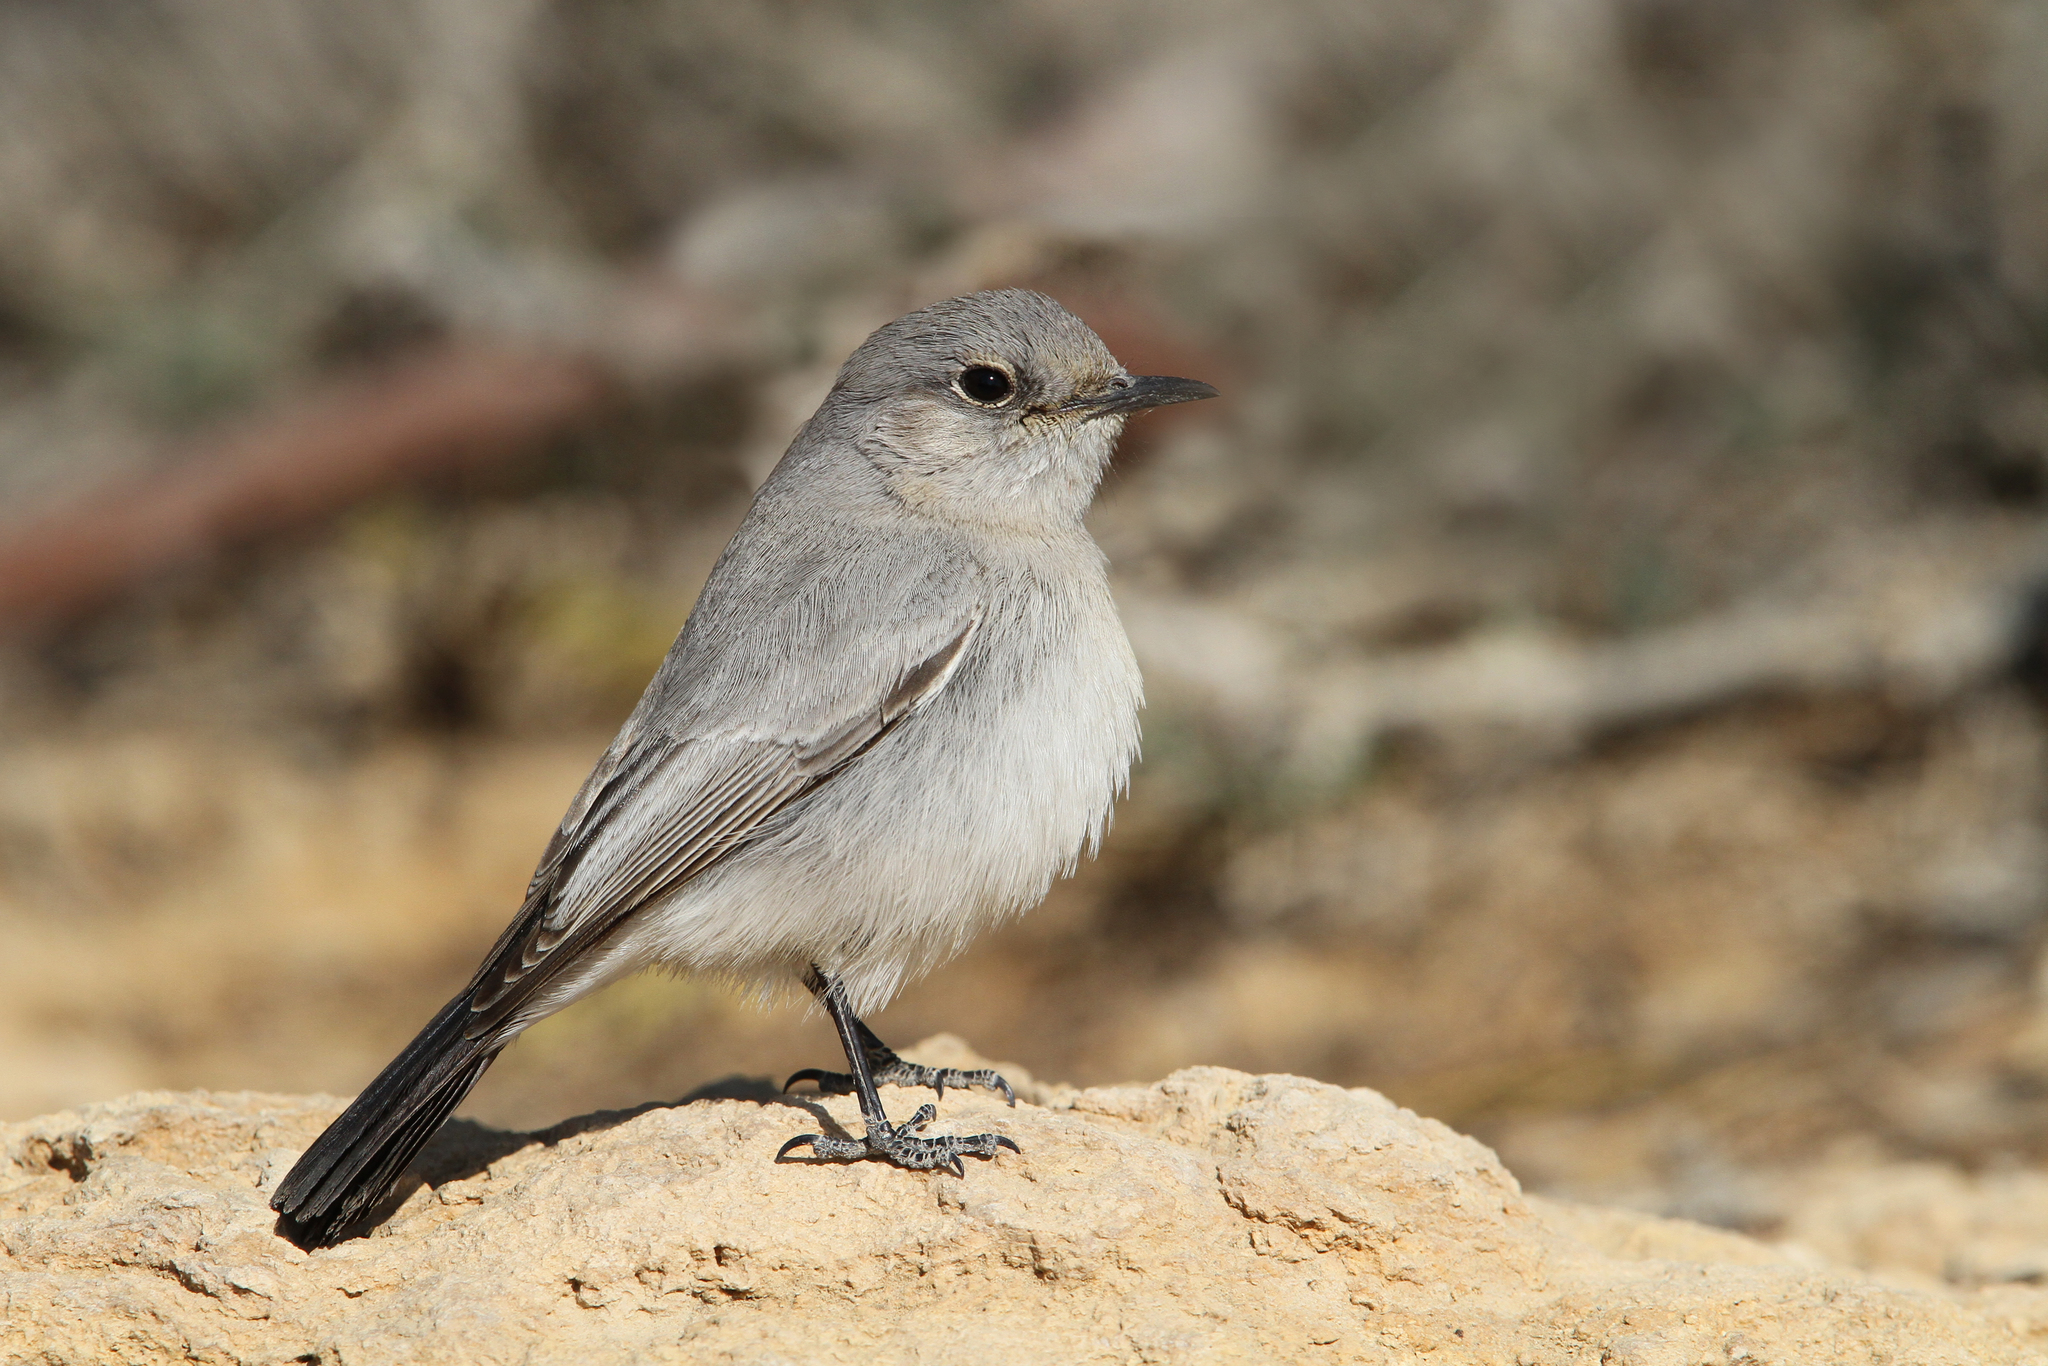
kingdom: Animalia
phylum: Chordata
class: Aves
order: Passeriformes
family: Muscicapidae
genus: Oenanthe
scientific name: Oenanthe melanura
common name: Blackstart
